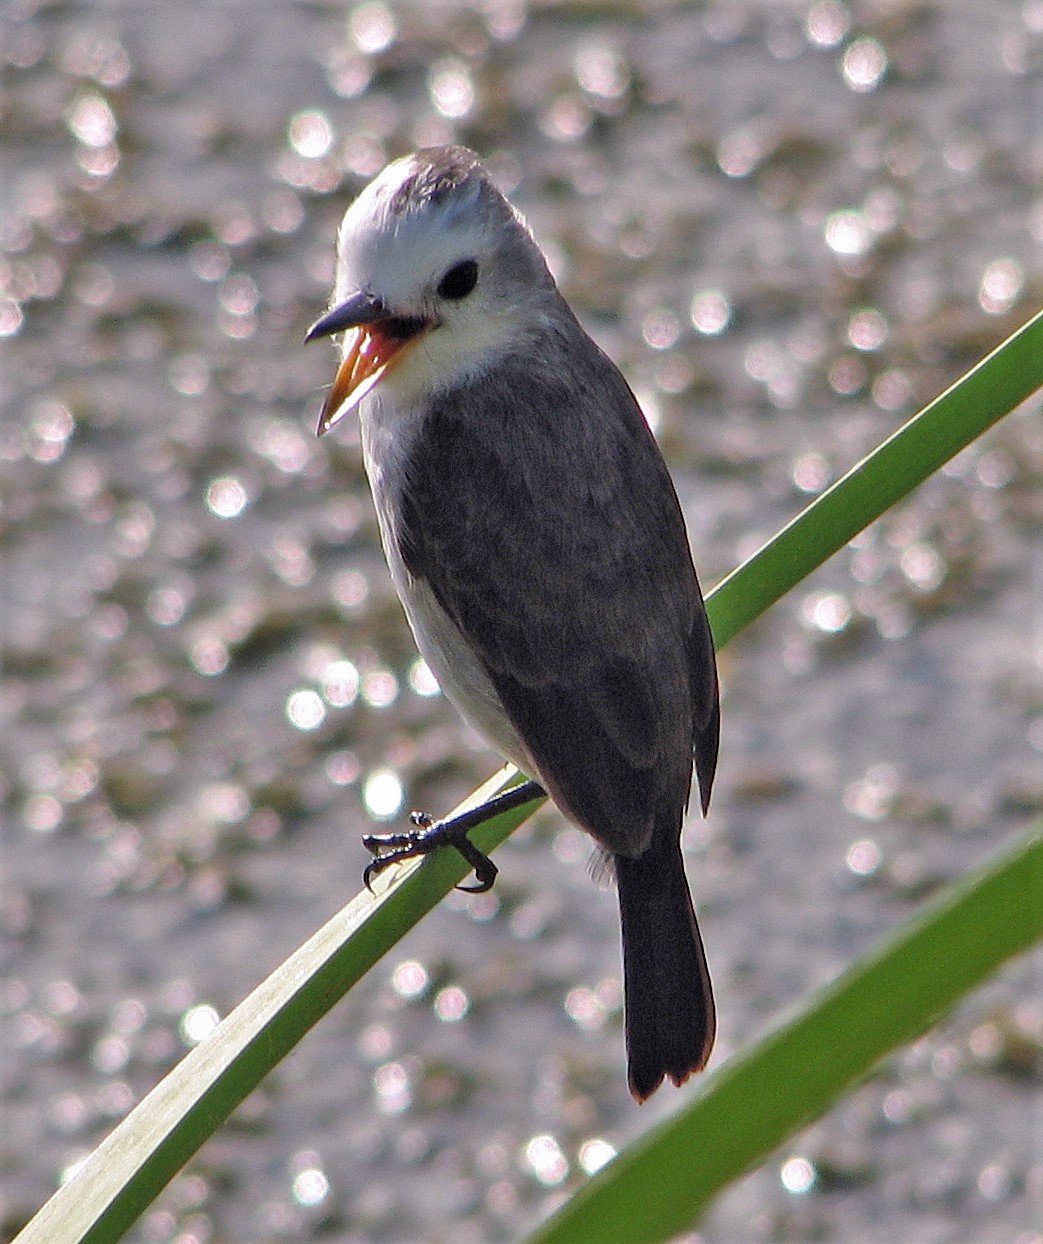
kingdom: Animalia
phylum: Chordata
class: Aves
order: Passeriformes
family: Tyrannidae
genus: Arundinicola
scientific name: Arundinicola leucocephala
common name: White-headed marsh tyrant
